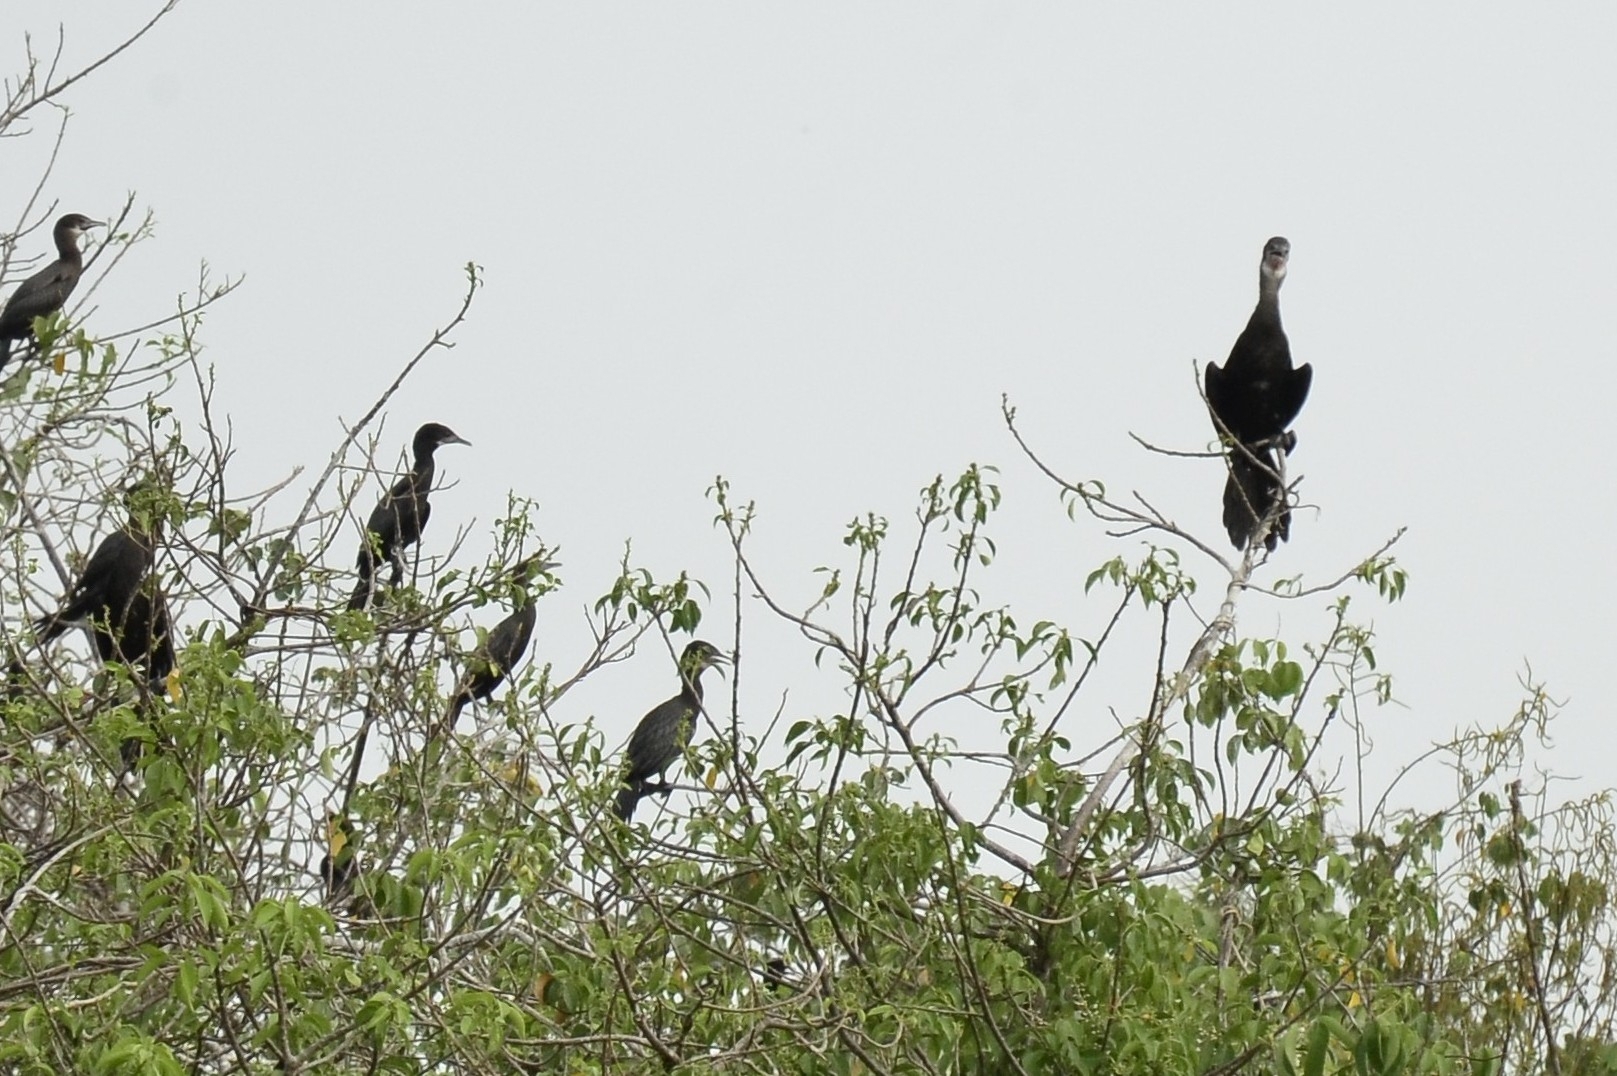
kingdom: Animalia
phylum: Chordata
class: Aves
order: Suliformes
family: Phalacrocoracidae
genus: Microcarbo
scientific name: Microcarbo niger
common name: Little cormorant
